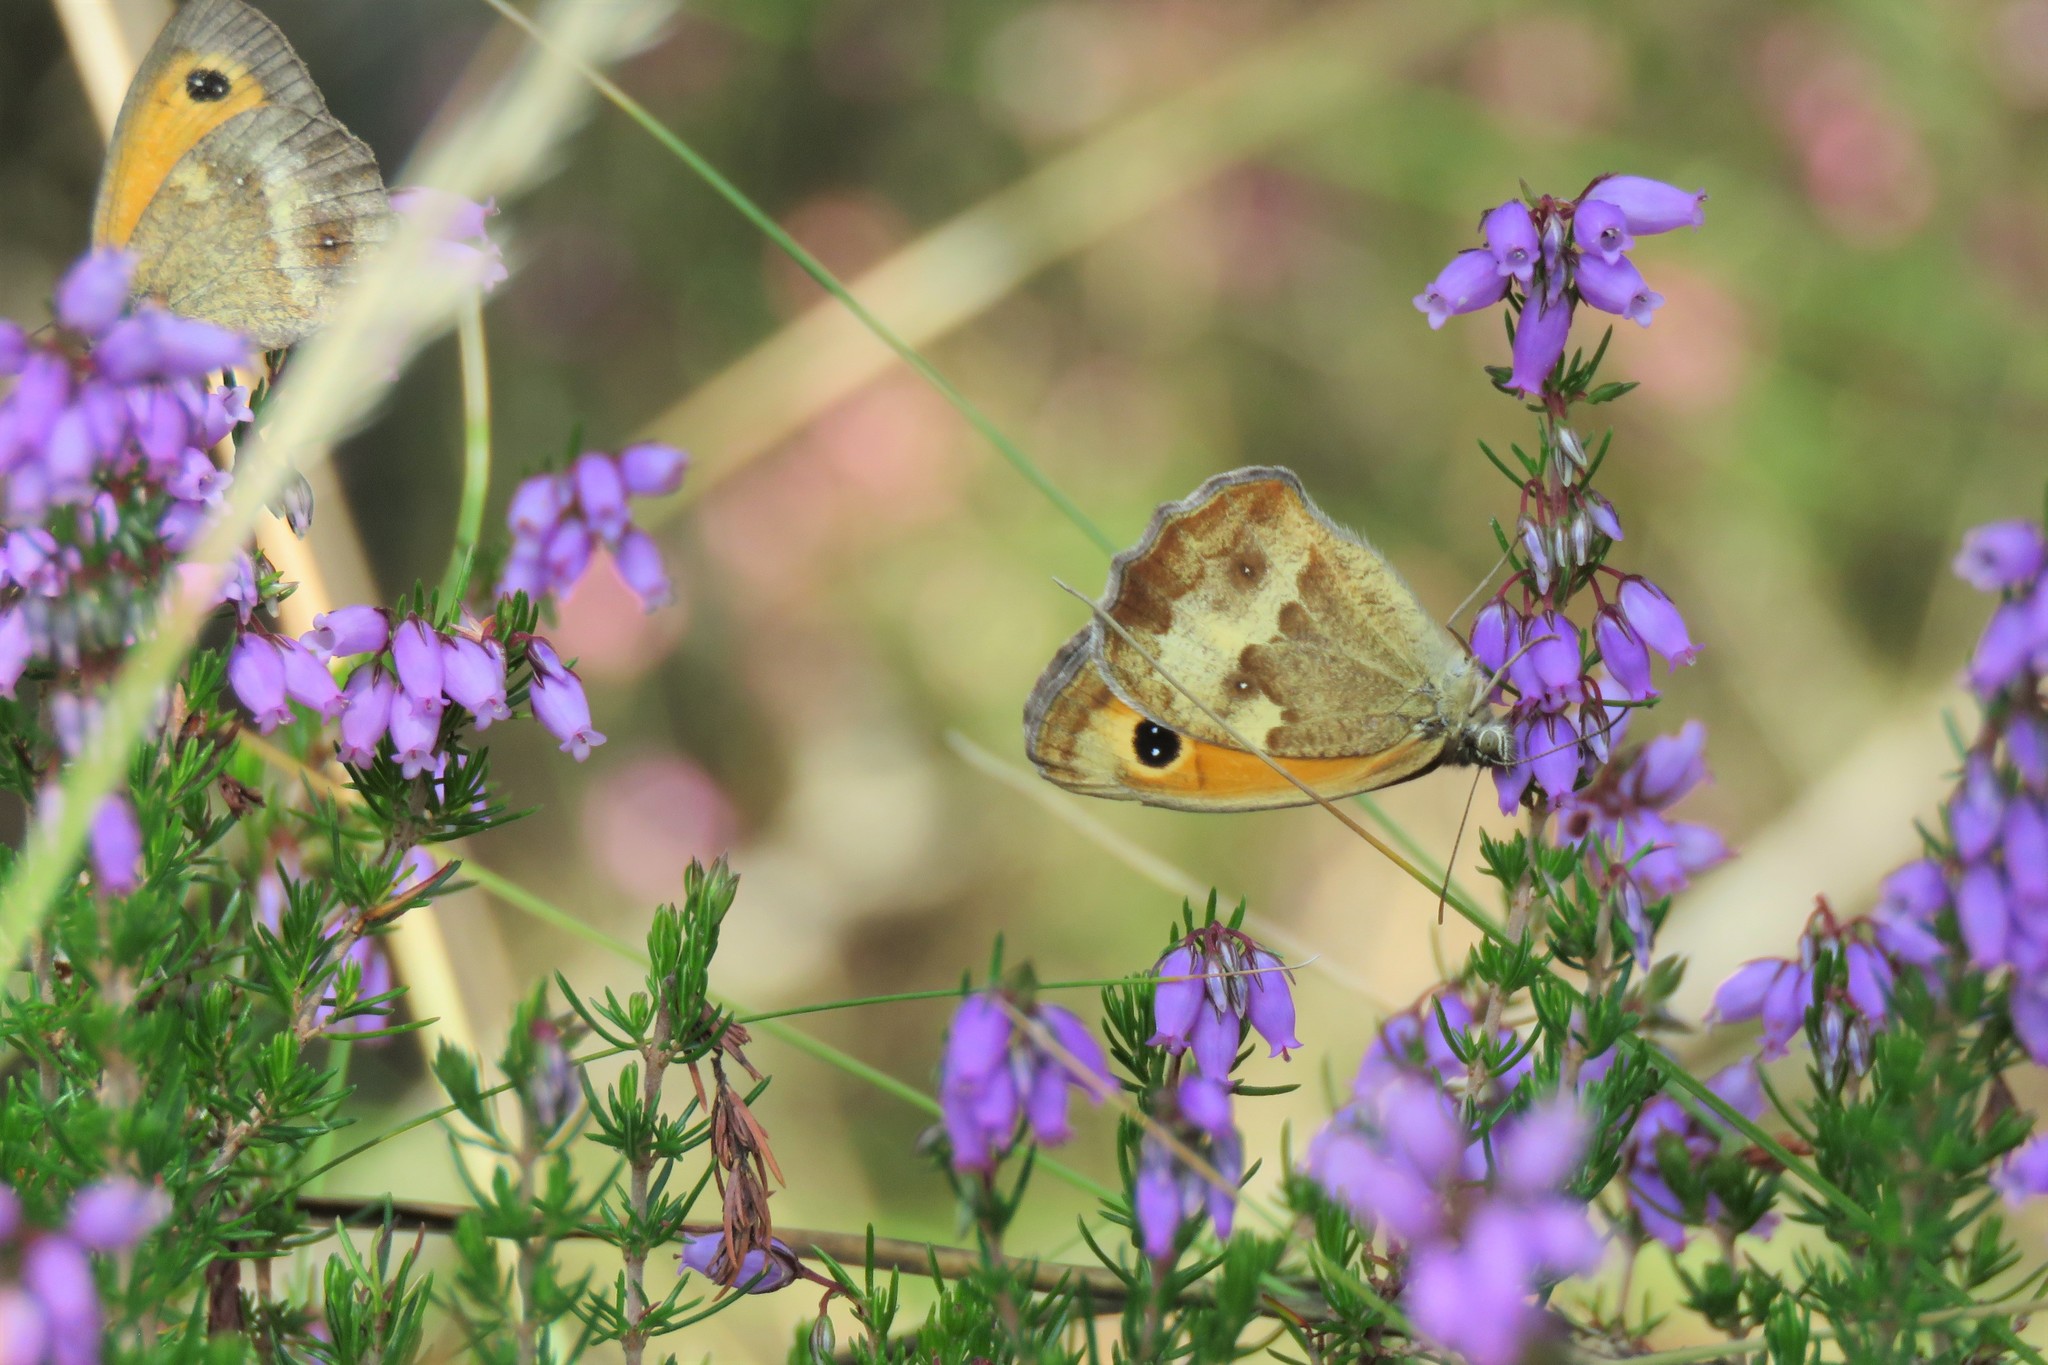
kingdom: Animalia
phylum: Arthropoda
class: Insecta
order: Lepidoptera
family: Nymphalidae
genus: Pyronia
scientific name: Pyronia tithonus
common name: Gatekeeper
